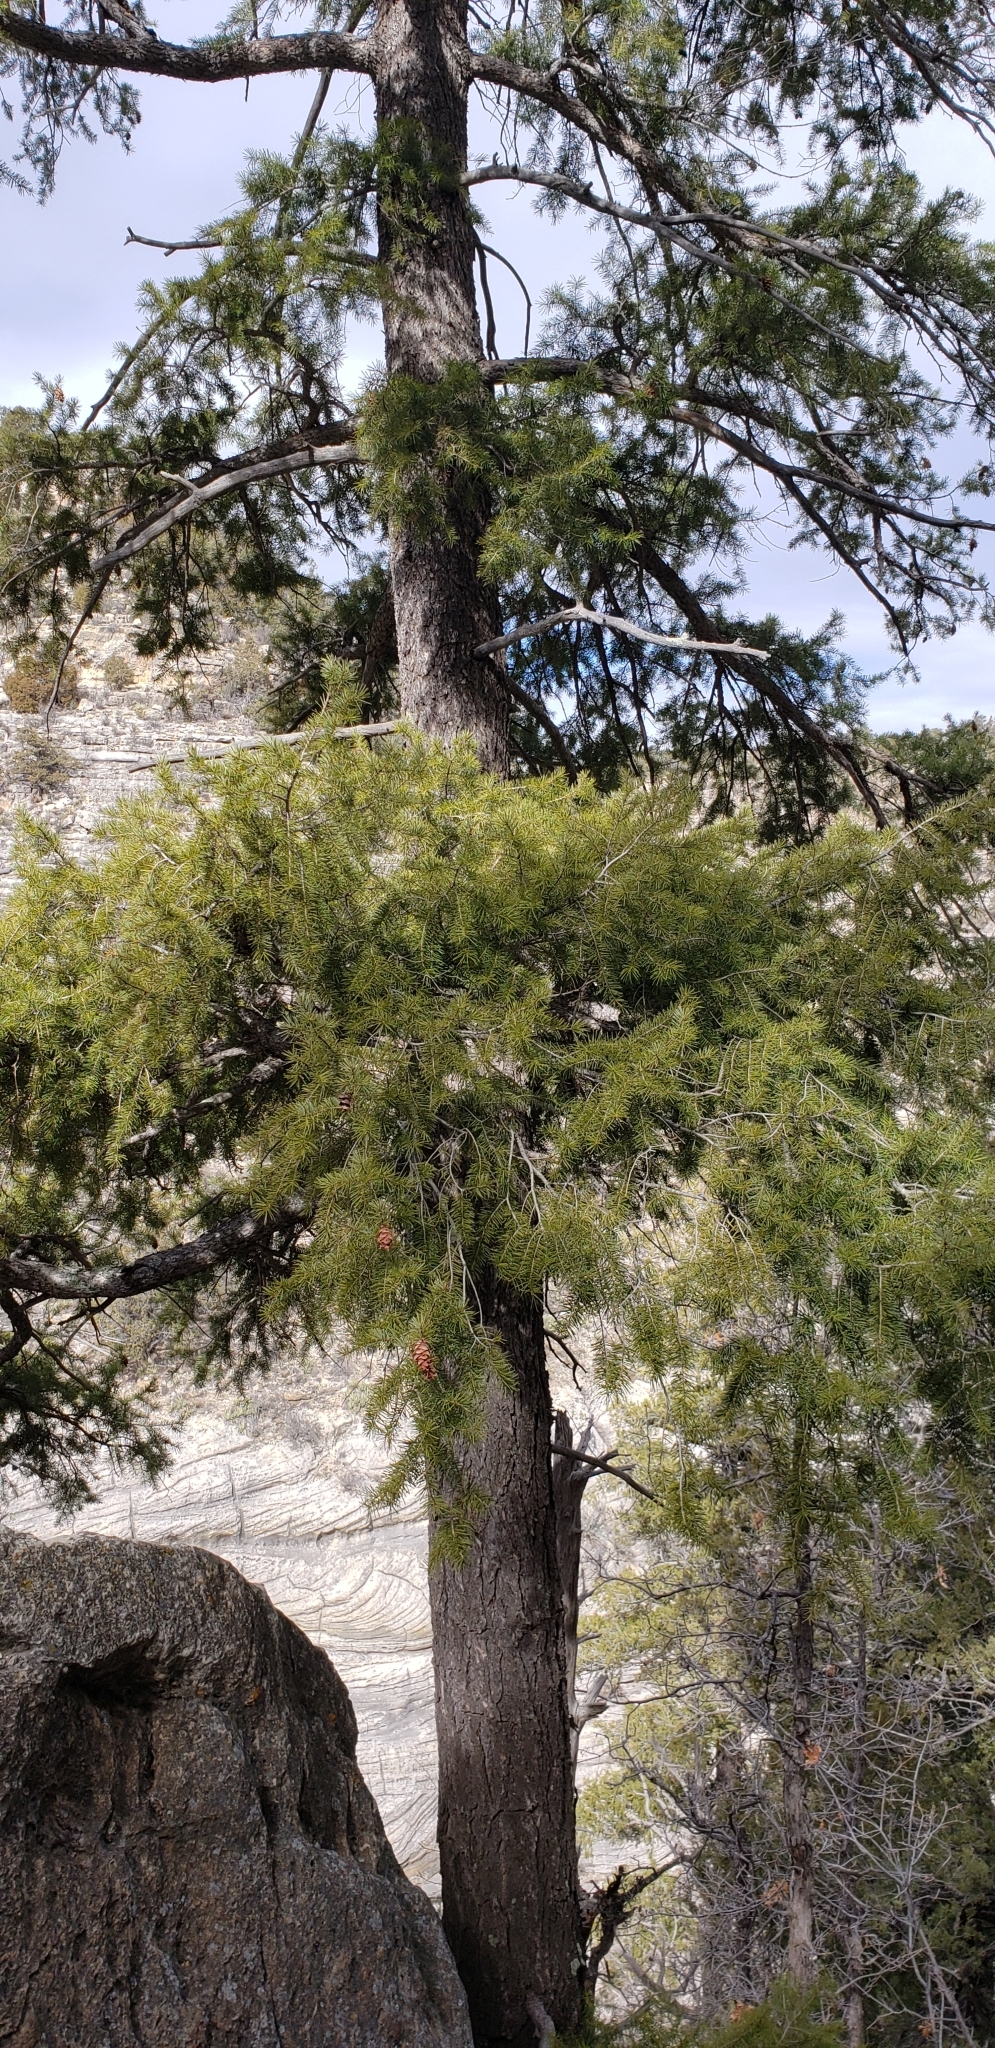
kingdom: Plantae
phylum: Tracheophyta
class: Pinopsida
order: Pinales
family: Pinaceae
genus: Pseudotsuga
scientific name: Pseudotsuga menziesii
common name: Douglas fir
